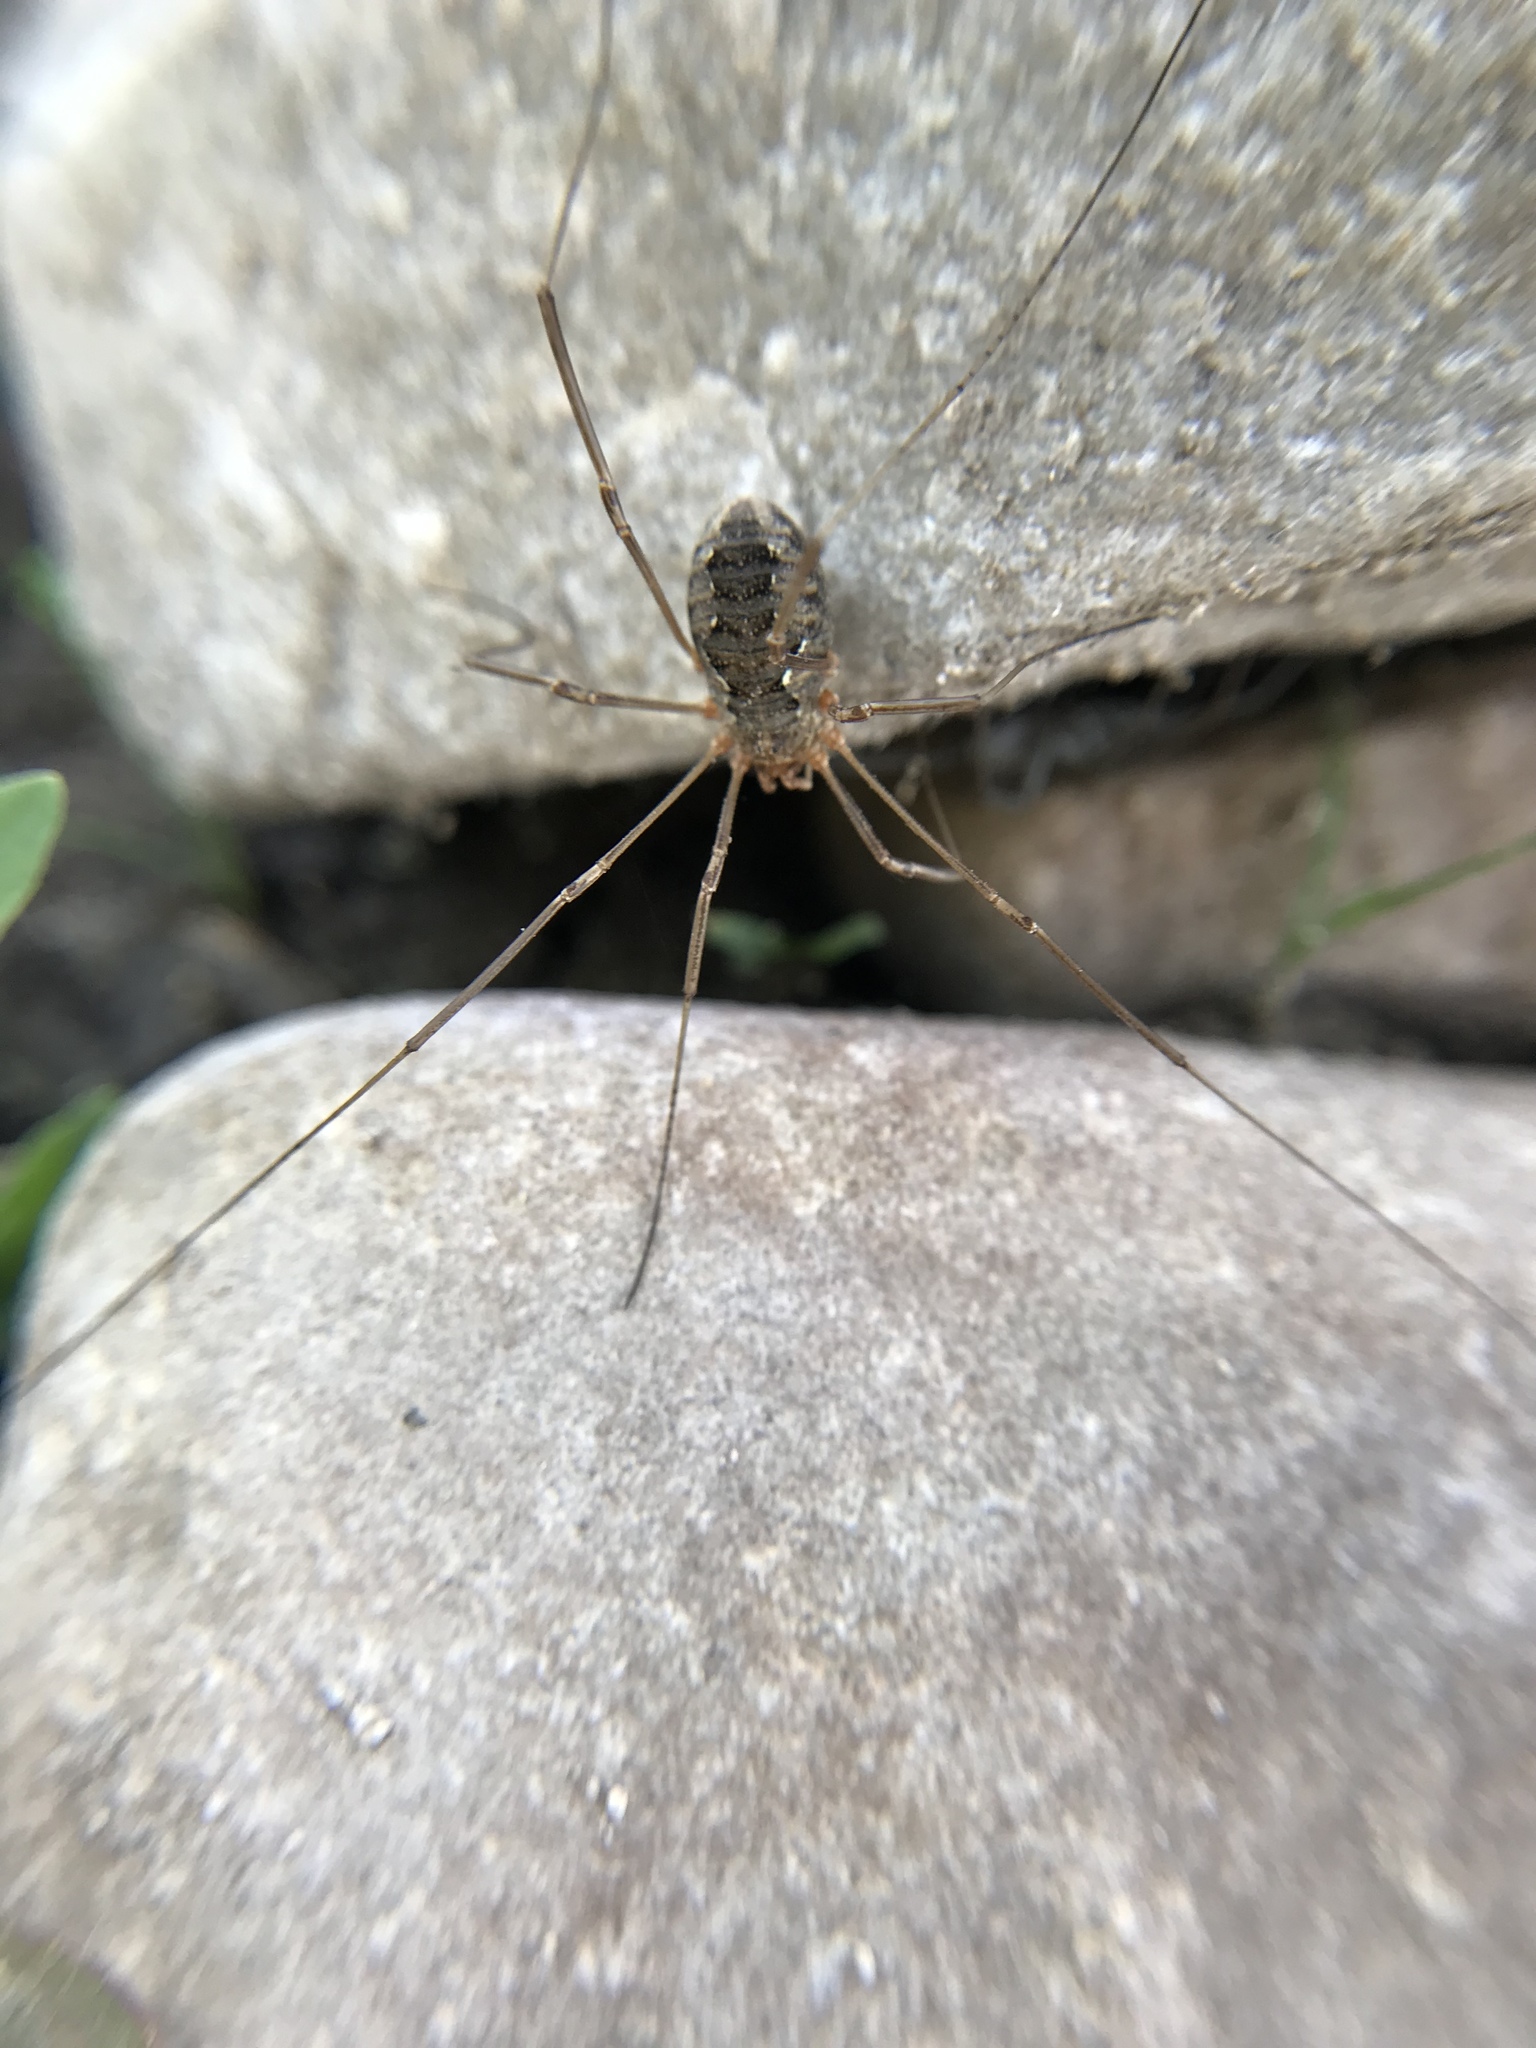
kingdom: Animalia
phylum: Arthropoda
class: Arachnida
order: Opiliones
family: Phalangiidae
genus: Phalangium
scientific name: Phalangium opilio
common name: Daddy longleg
